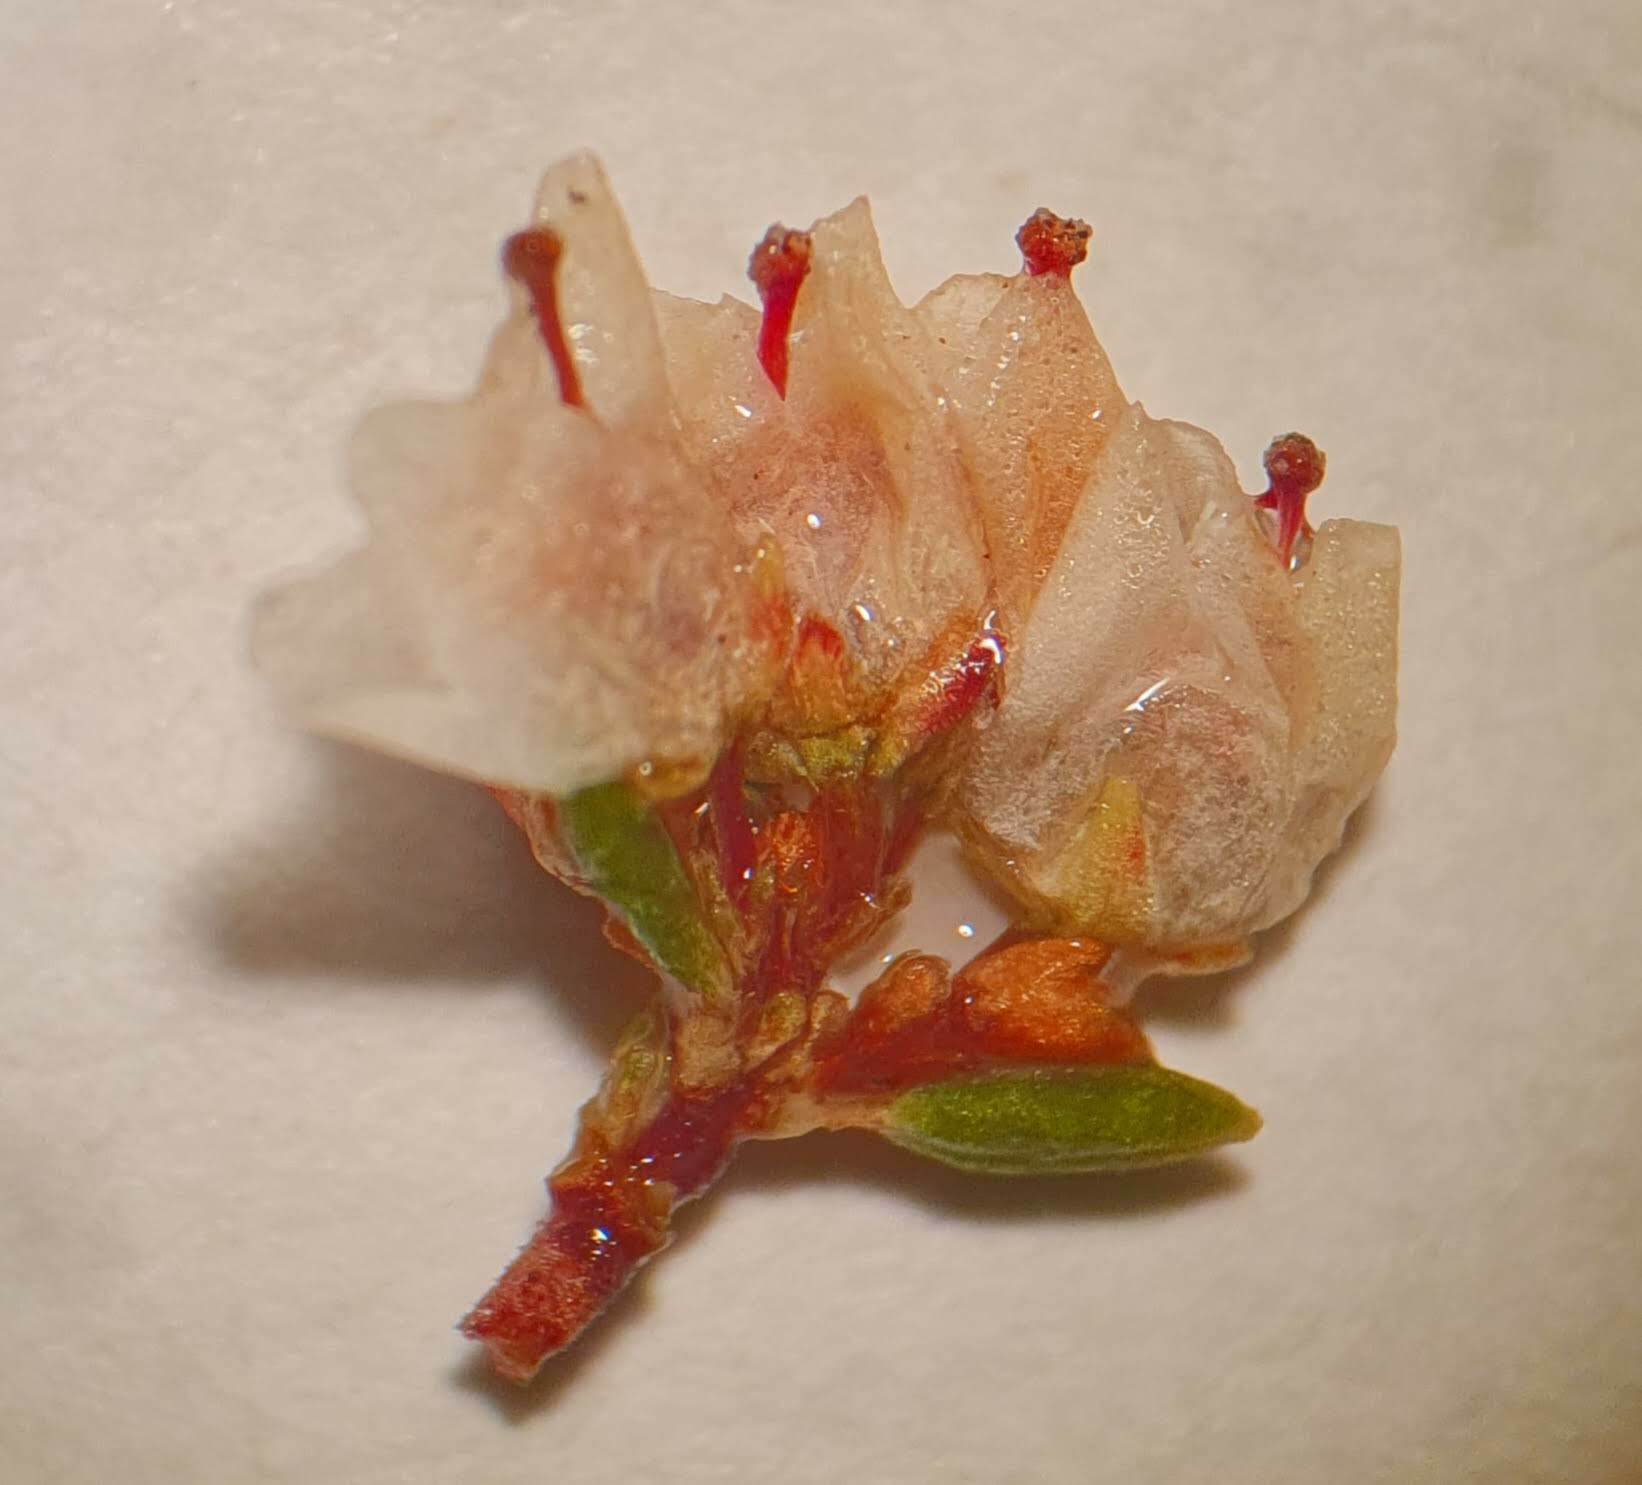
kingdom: Plantae
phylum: Tracheophyta
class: Magnoliopsida
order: Ericales
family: Ericaceae
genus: Erica
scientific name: Erica quadrangularis
